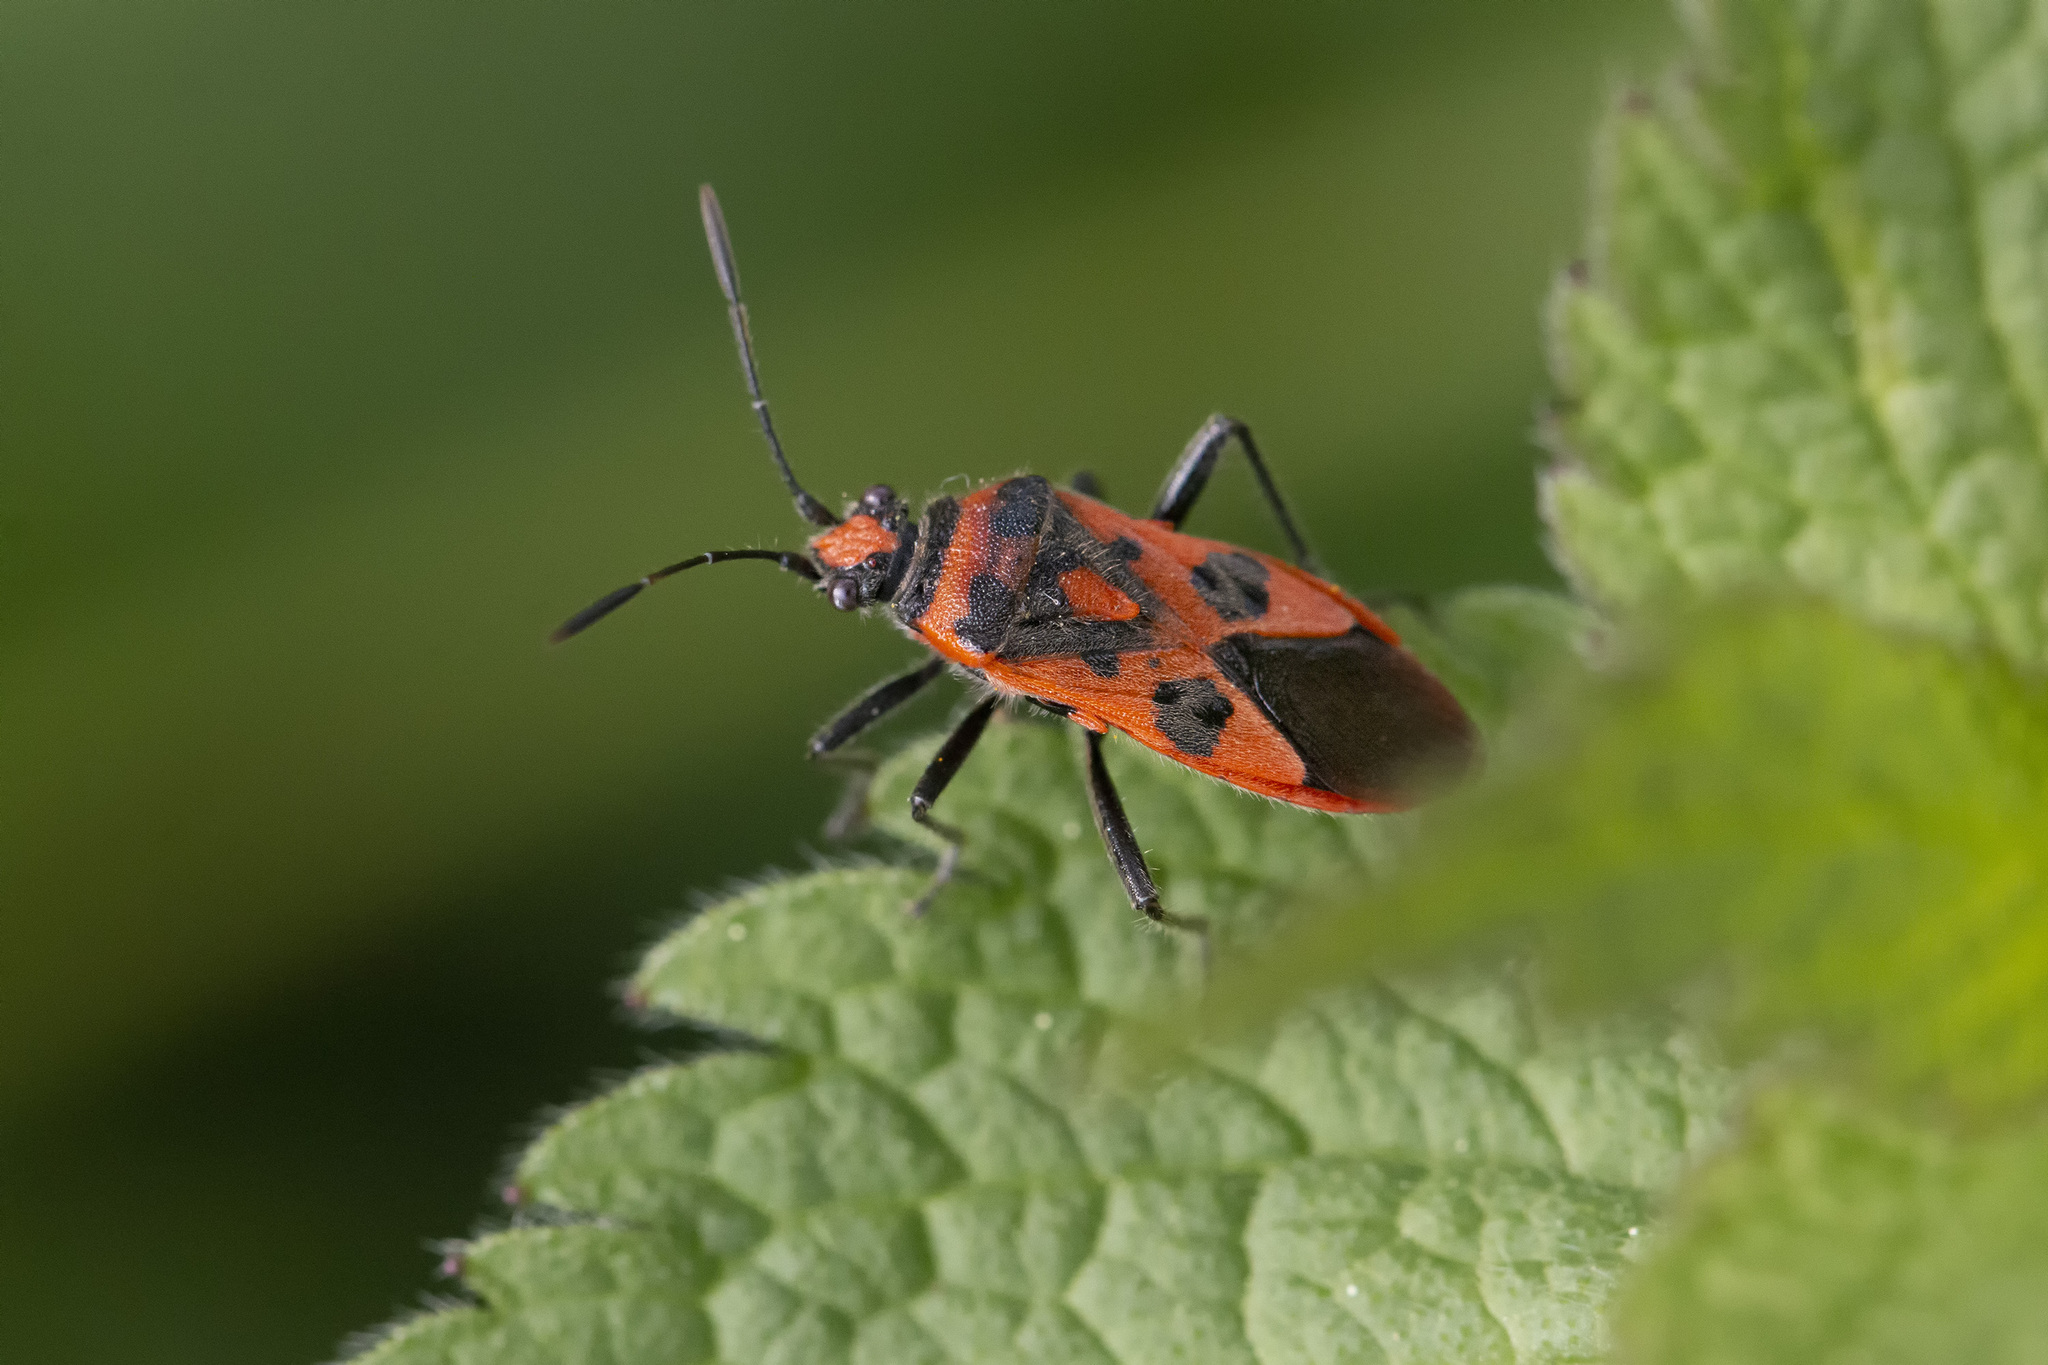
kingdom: Animalia
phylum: Arthropoda
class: Insecta
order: Hemiptera
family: Rhopalidae
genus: Corizus
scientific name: Corizus hyoscyami
